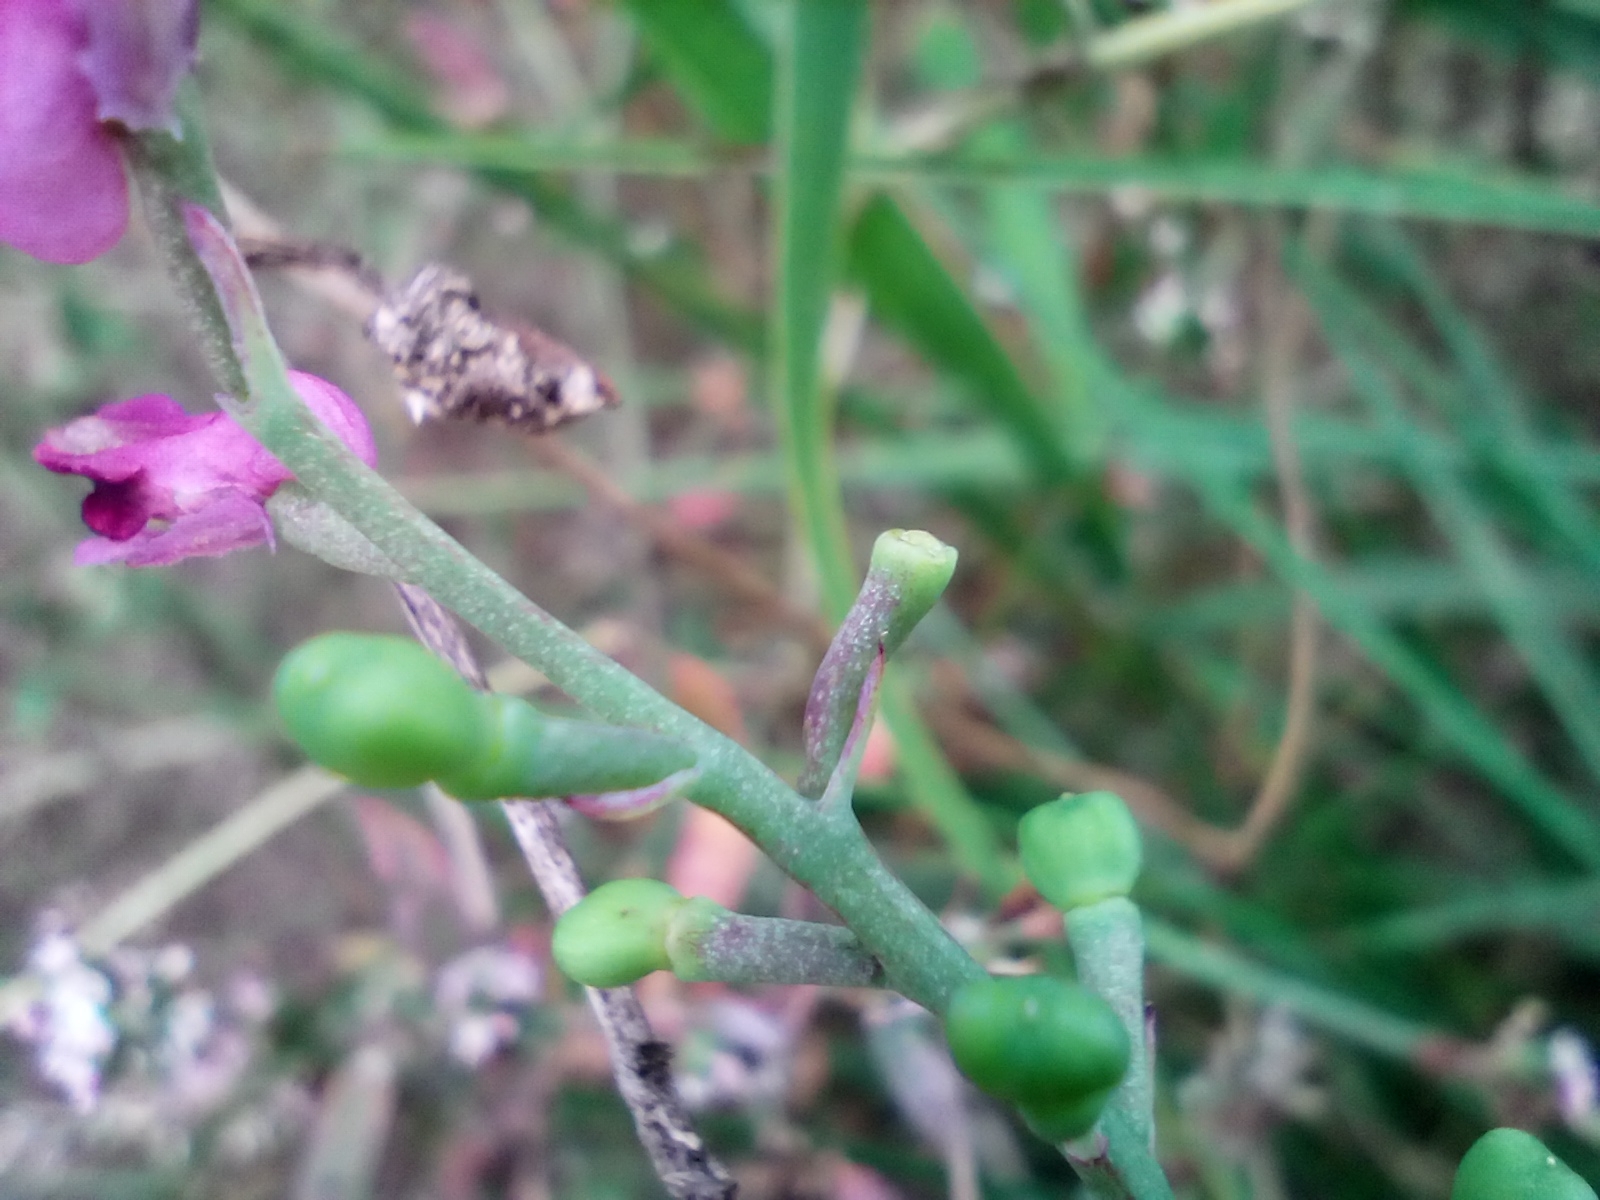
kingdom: Plantae
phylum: Tracheophyta
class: Magnoliopsida
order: Ranunculales
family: Papaveraceae
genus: Fumaria
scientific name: Fumaria officinalis
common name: Common fumitory
